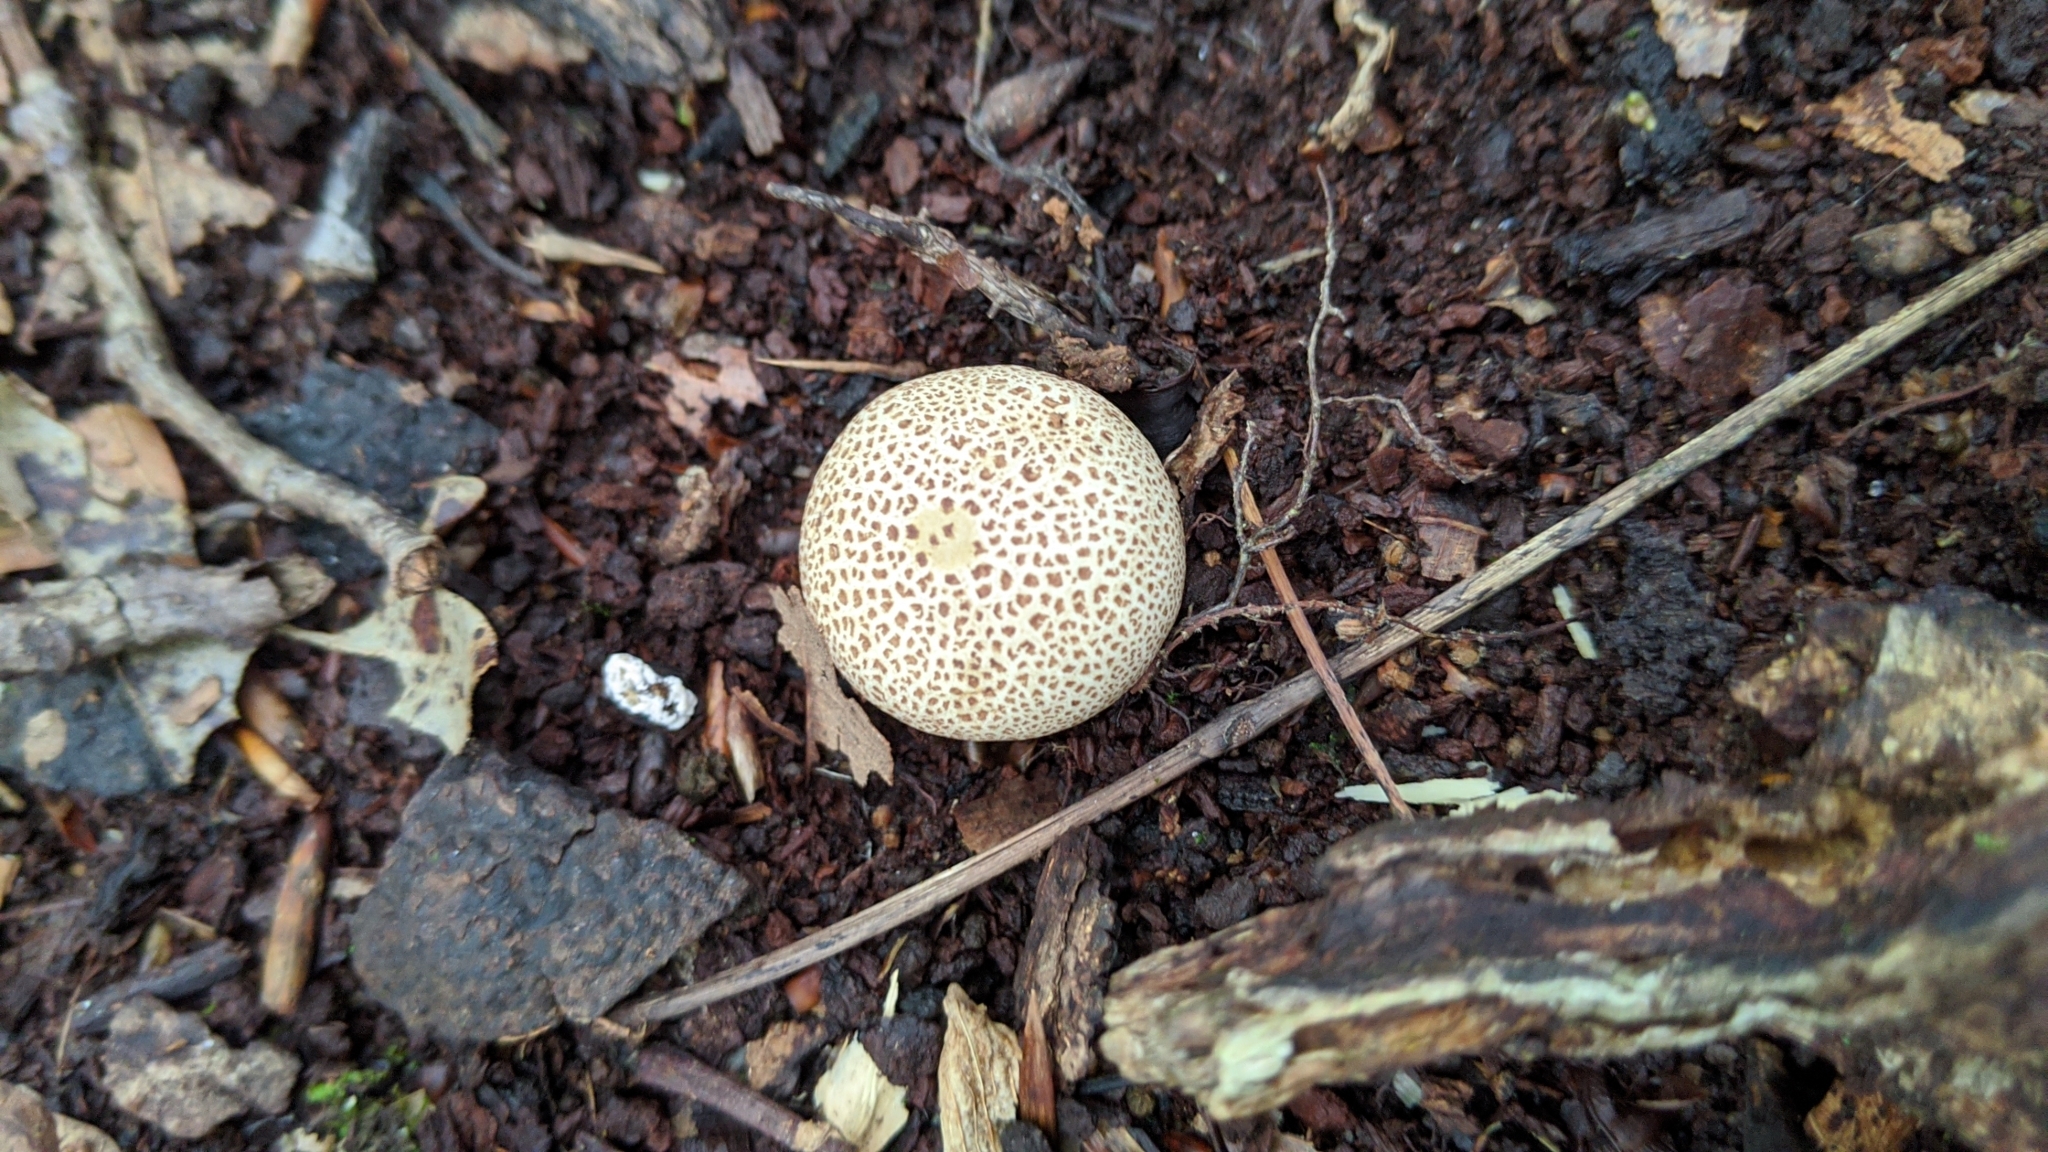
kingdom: Fungi
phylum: Basidiomycota
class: Agaricomycetes
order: Boletales
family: Sclerodermataceae
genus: Scleroderma
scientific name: Scleroderma citrinum
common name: Common earthball
